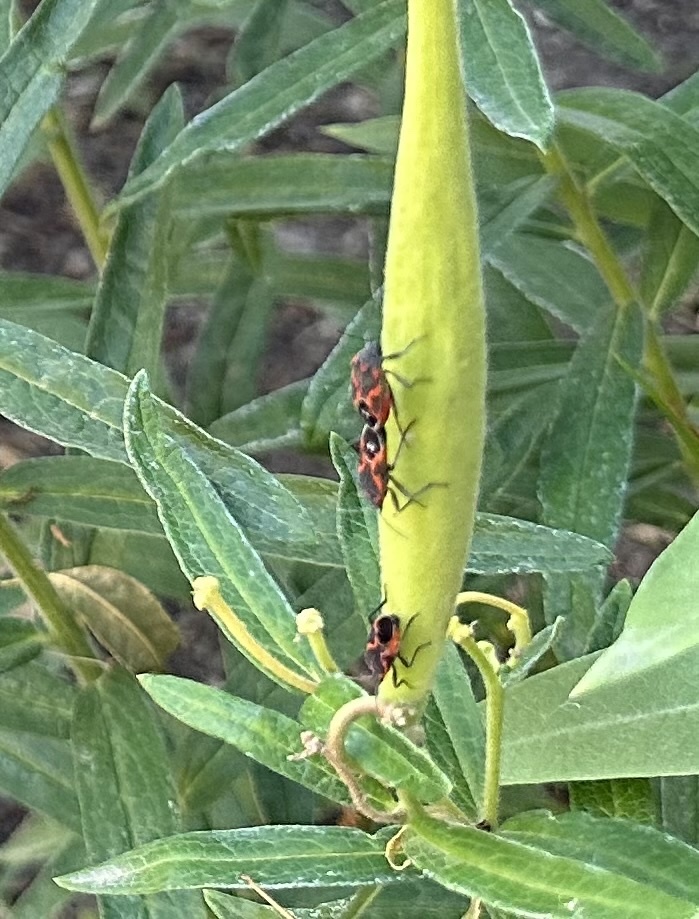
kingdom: Animalia
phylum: Arthropoda
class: Insecta
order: Hemiptera
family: Lygaeidae
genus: Lygaeus
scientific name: Lygaeus kalmii
